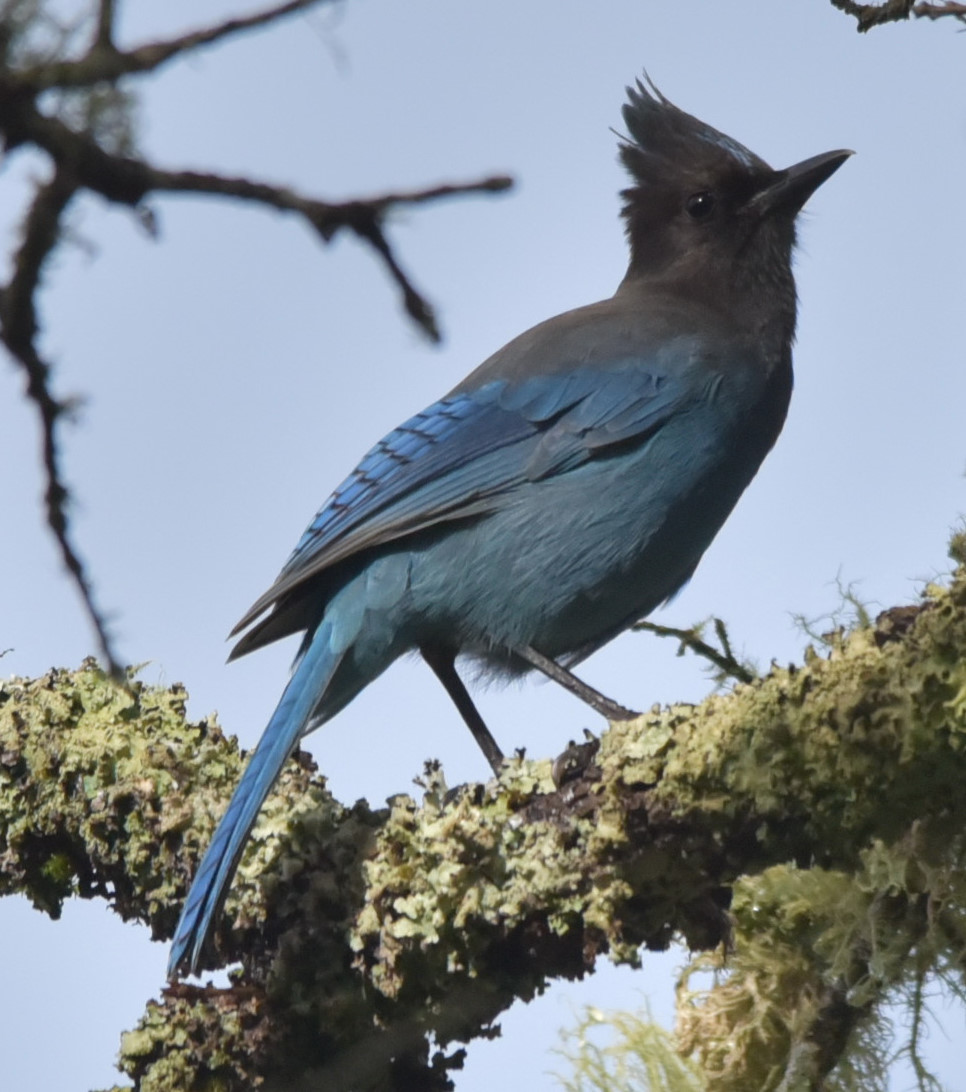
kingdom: Animalia
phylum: Chordata
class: Aves
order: Passeriformes
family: Corvidae
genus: Cyanocitta
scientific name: Cyanocitta stelleri
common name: Steller's jay
